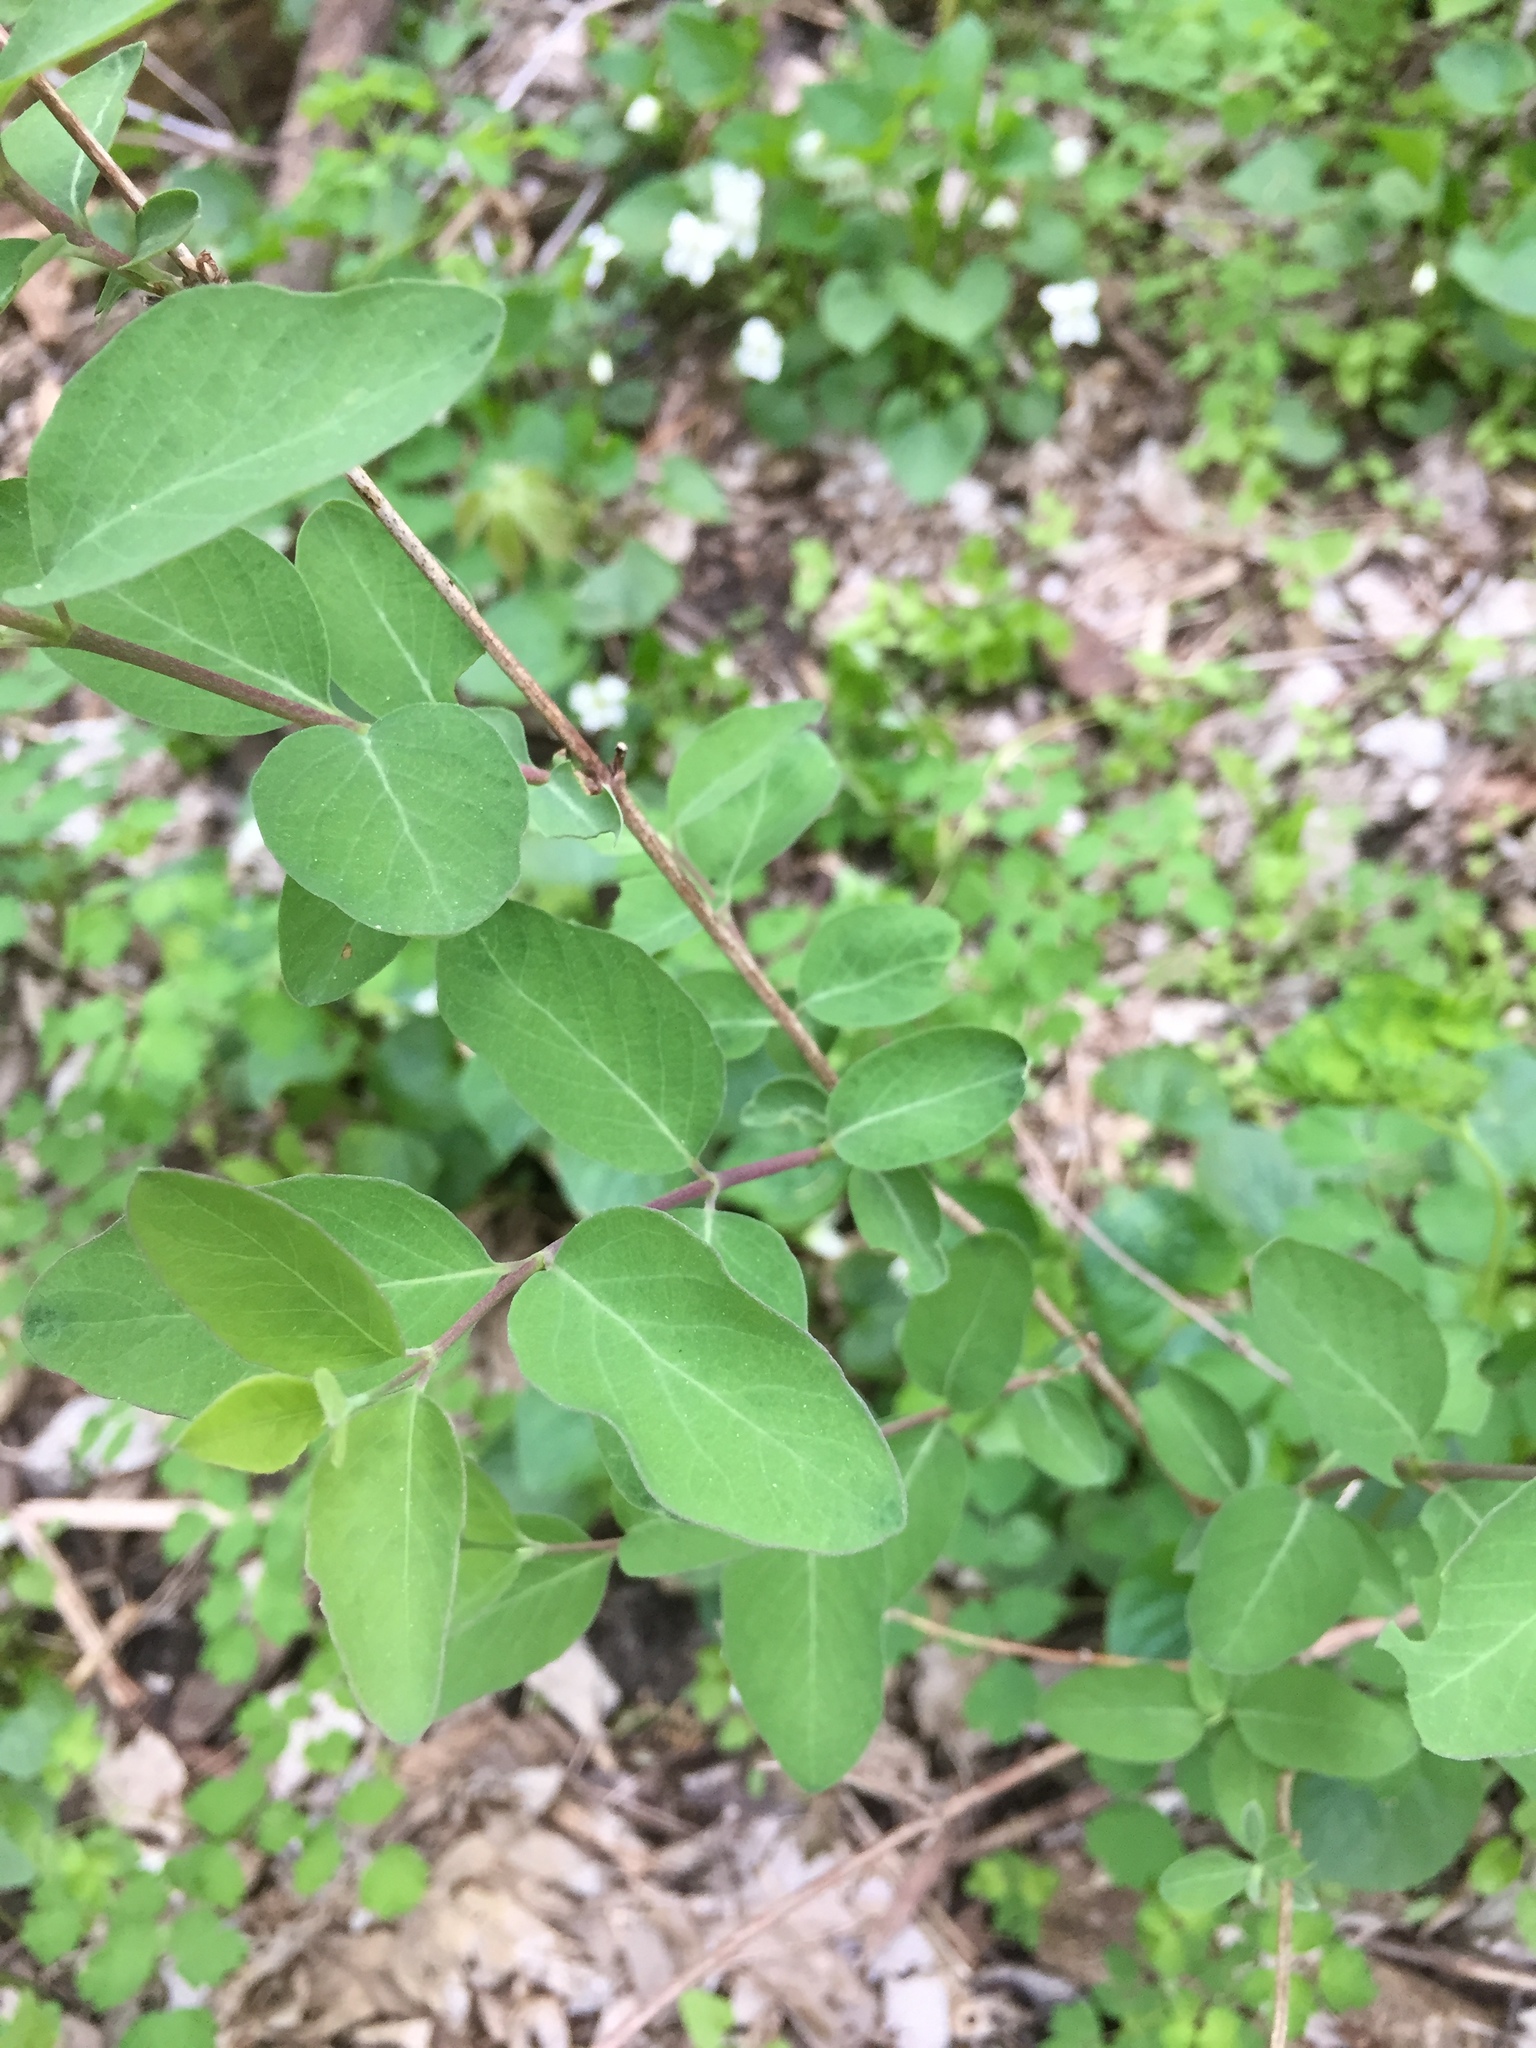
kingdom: Plantae
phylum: Tracheophyta
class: Magnoliopsida
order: Dipsacales
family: Caprifoliaceae
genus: Lonicera
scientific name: Lonicera
